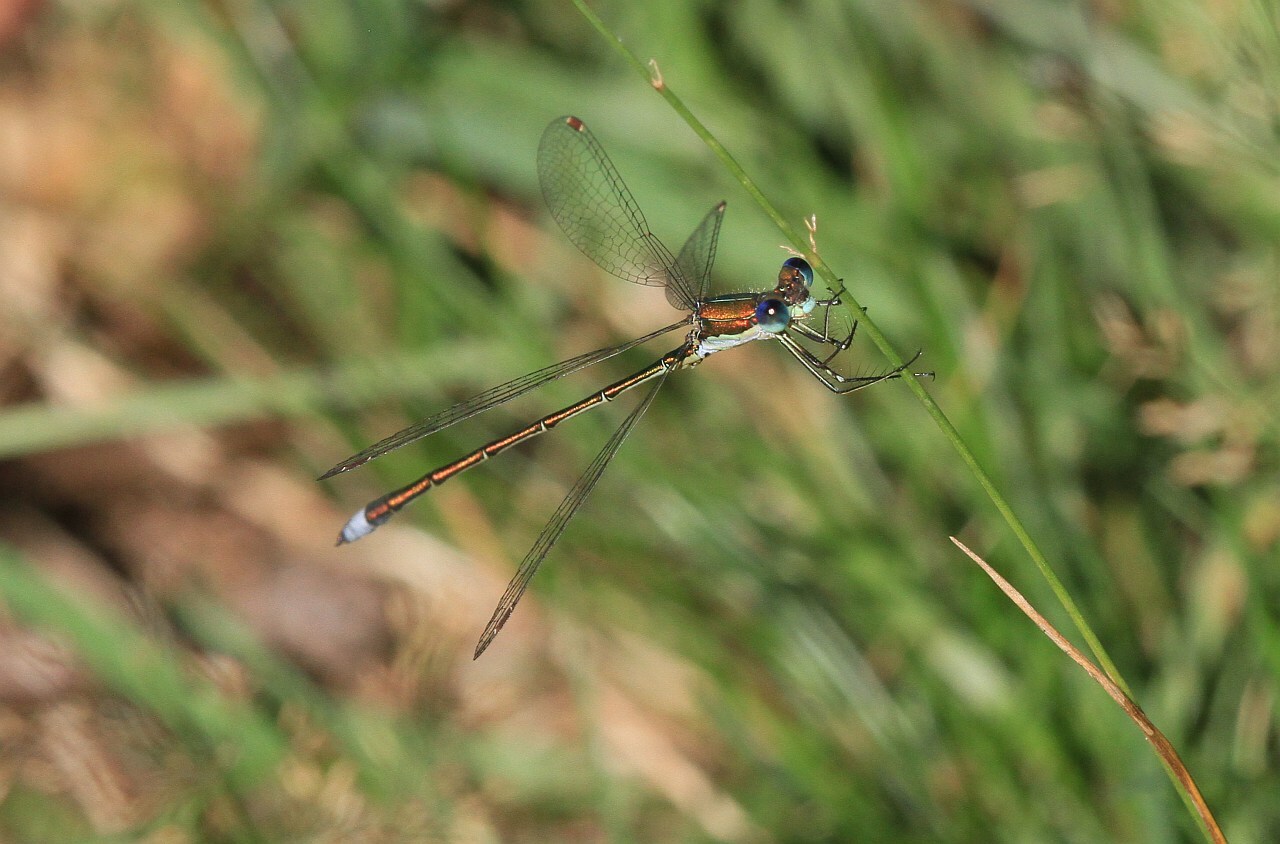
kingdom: Animalia
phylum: Arthropoda
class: Insecta
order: Odonata
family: Lestidae
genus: Lestes
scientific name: Lestes virens
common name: Small emerald spreadwing
